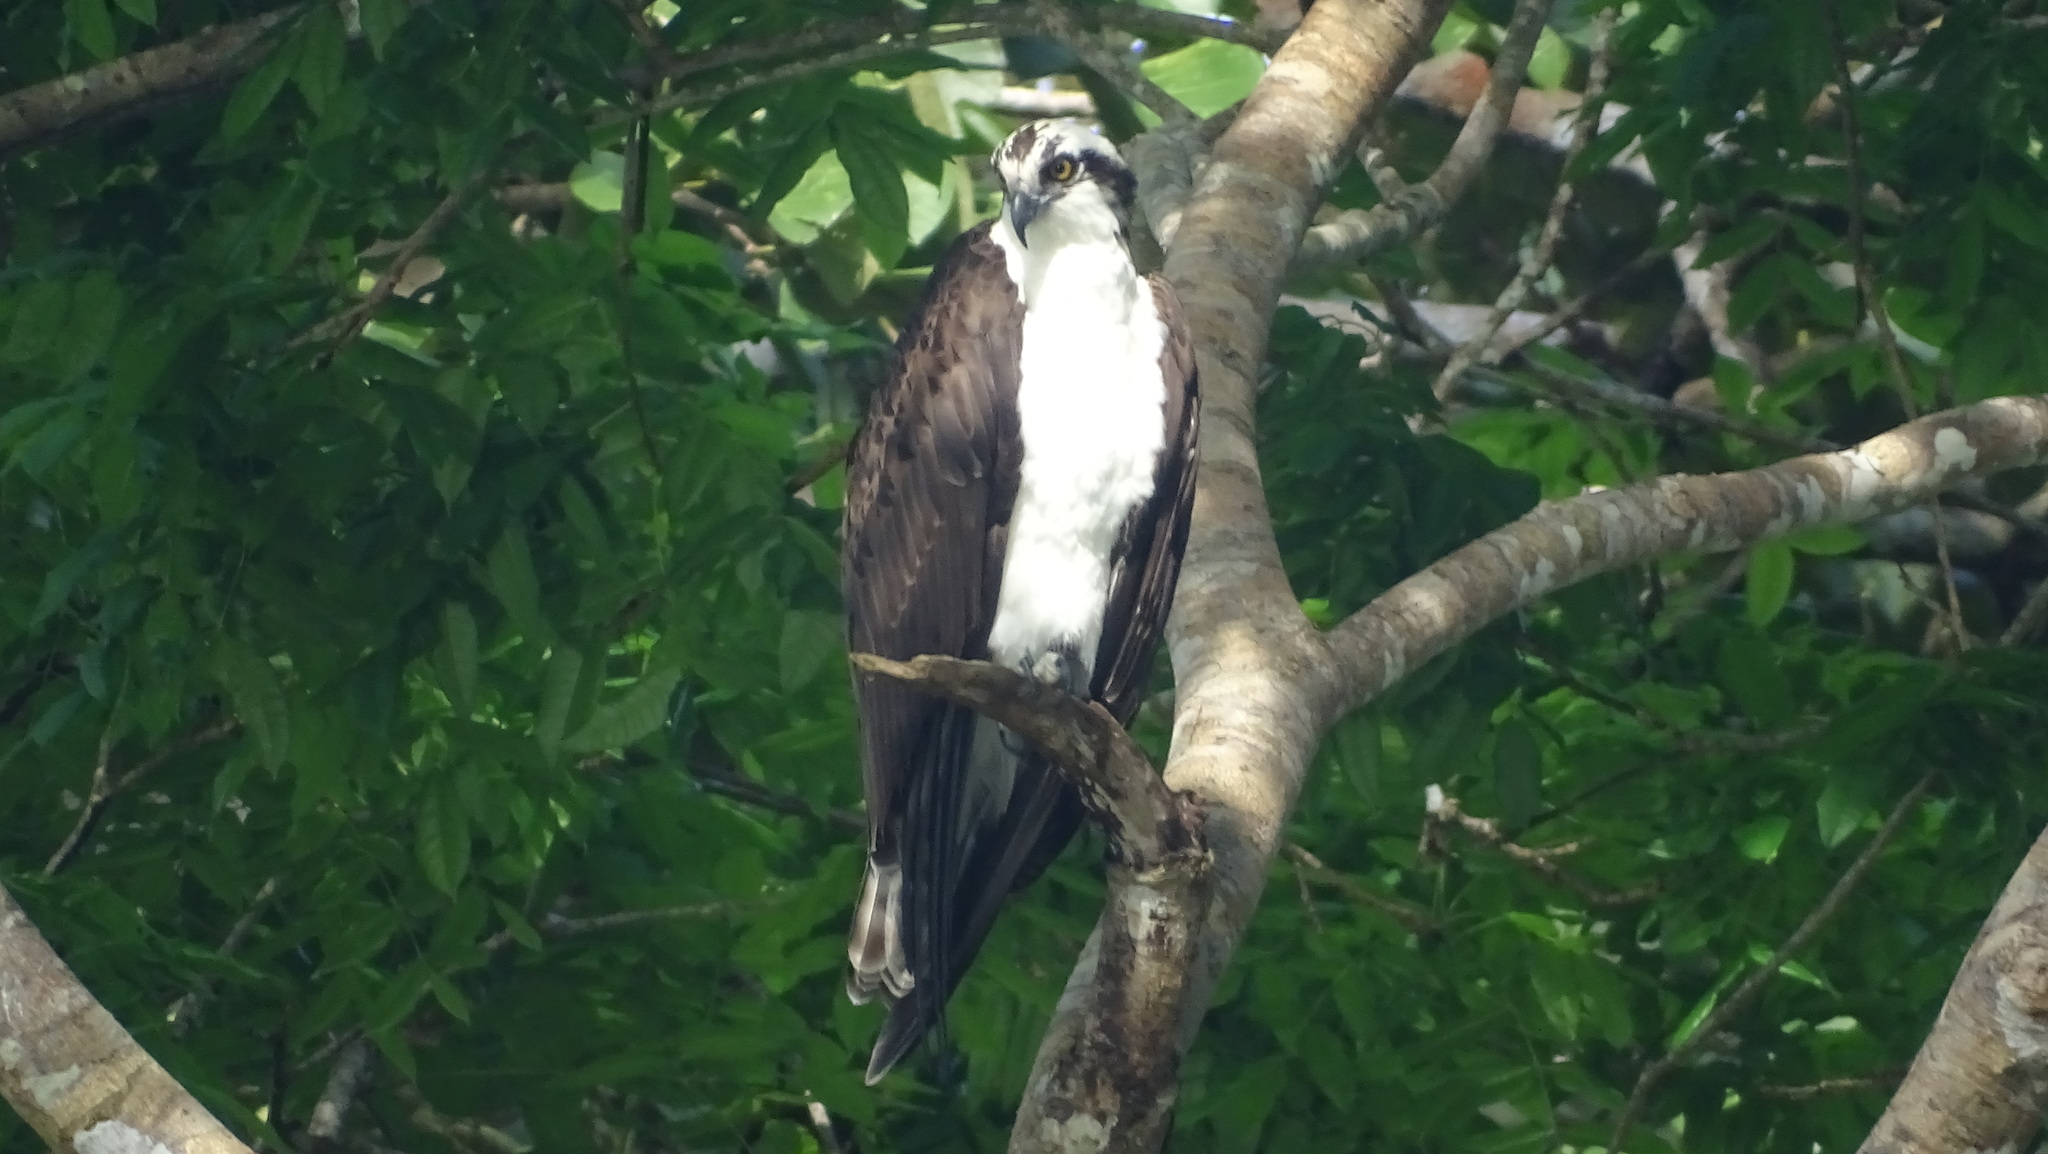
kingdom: Animalia
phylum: Chordata
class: Aves
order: Accipitriformes
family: Pandionidae
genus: Pandion
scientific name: Pandion haliaetus
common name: Osprey
